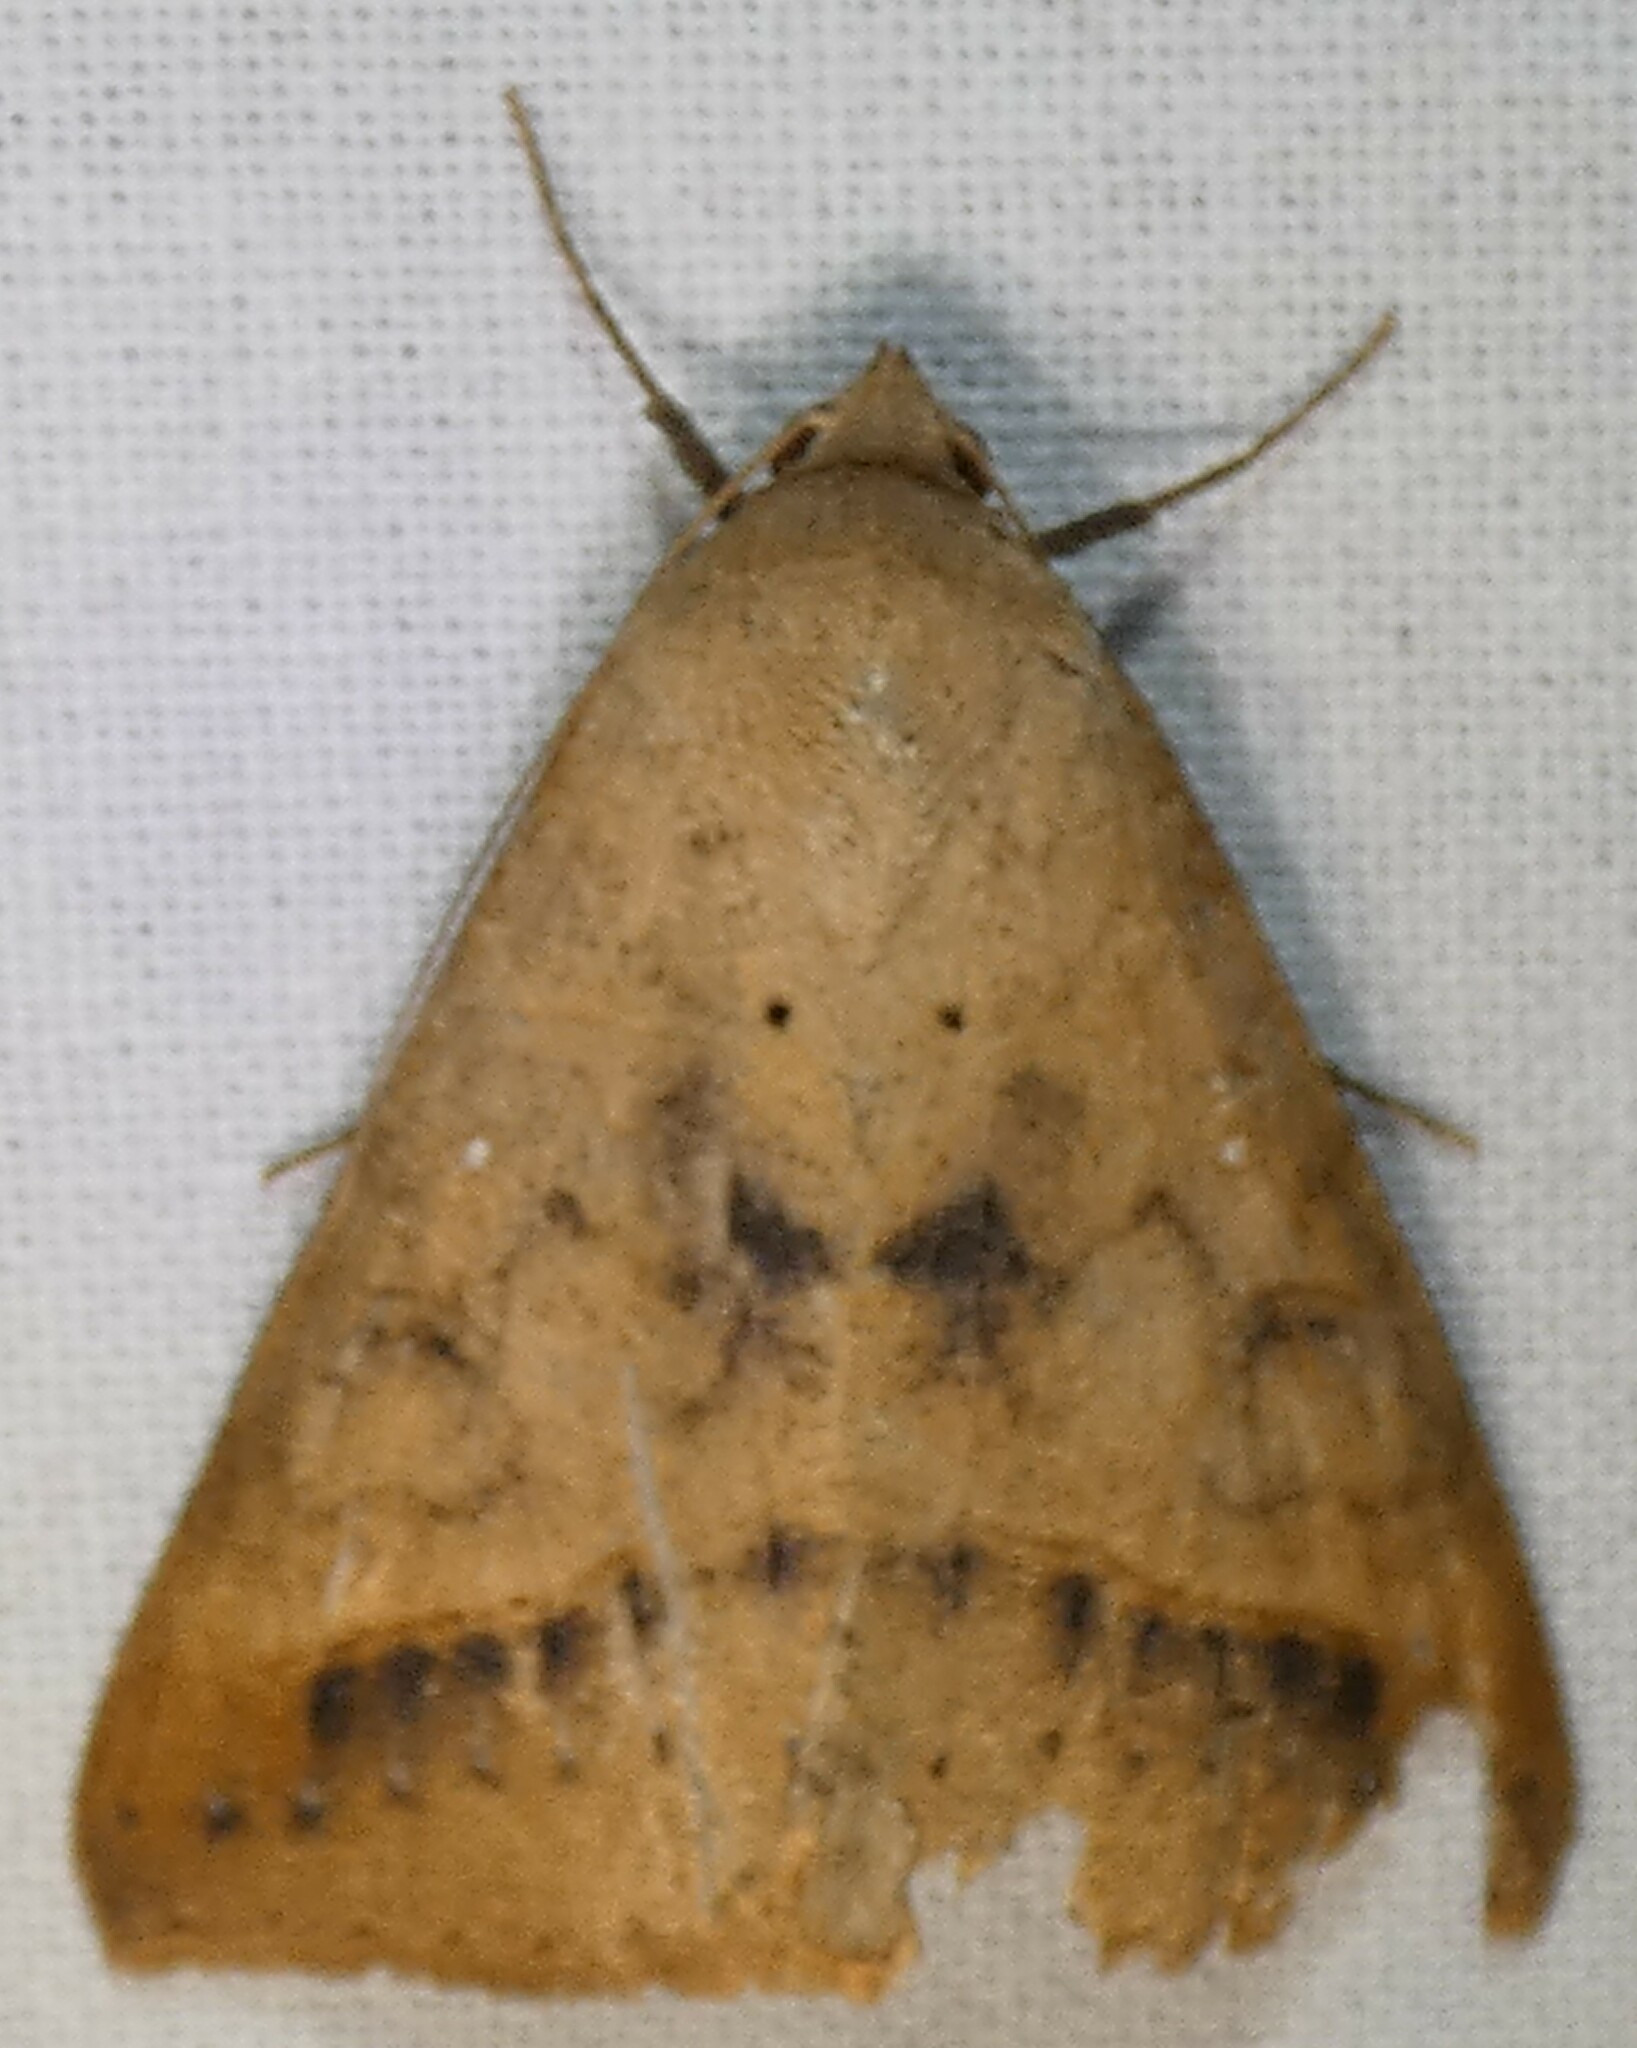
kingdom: Animalia
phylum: Arthropoda
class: Insecta
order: Lepidoptera
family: Erebidae
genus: Mocis
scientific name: Mocis disseverans
